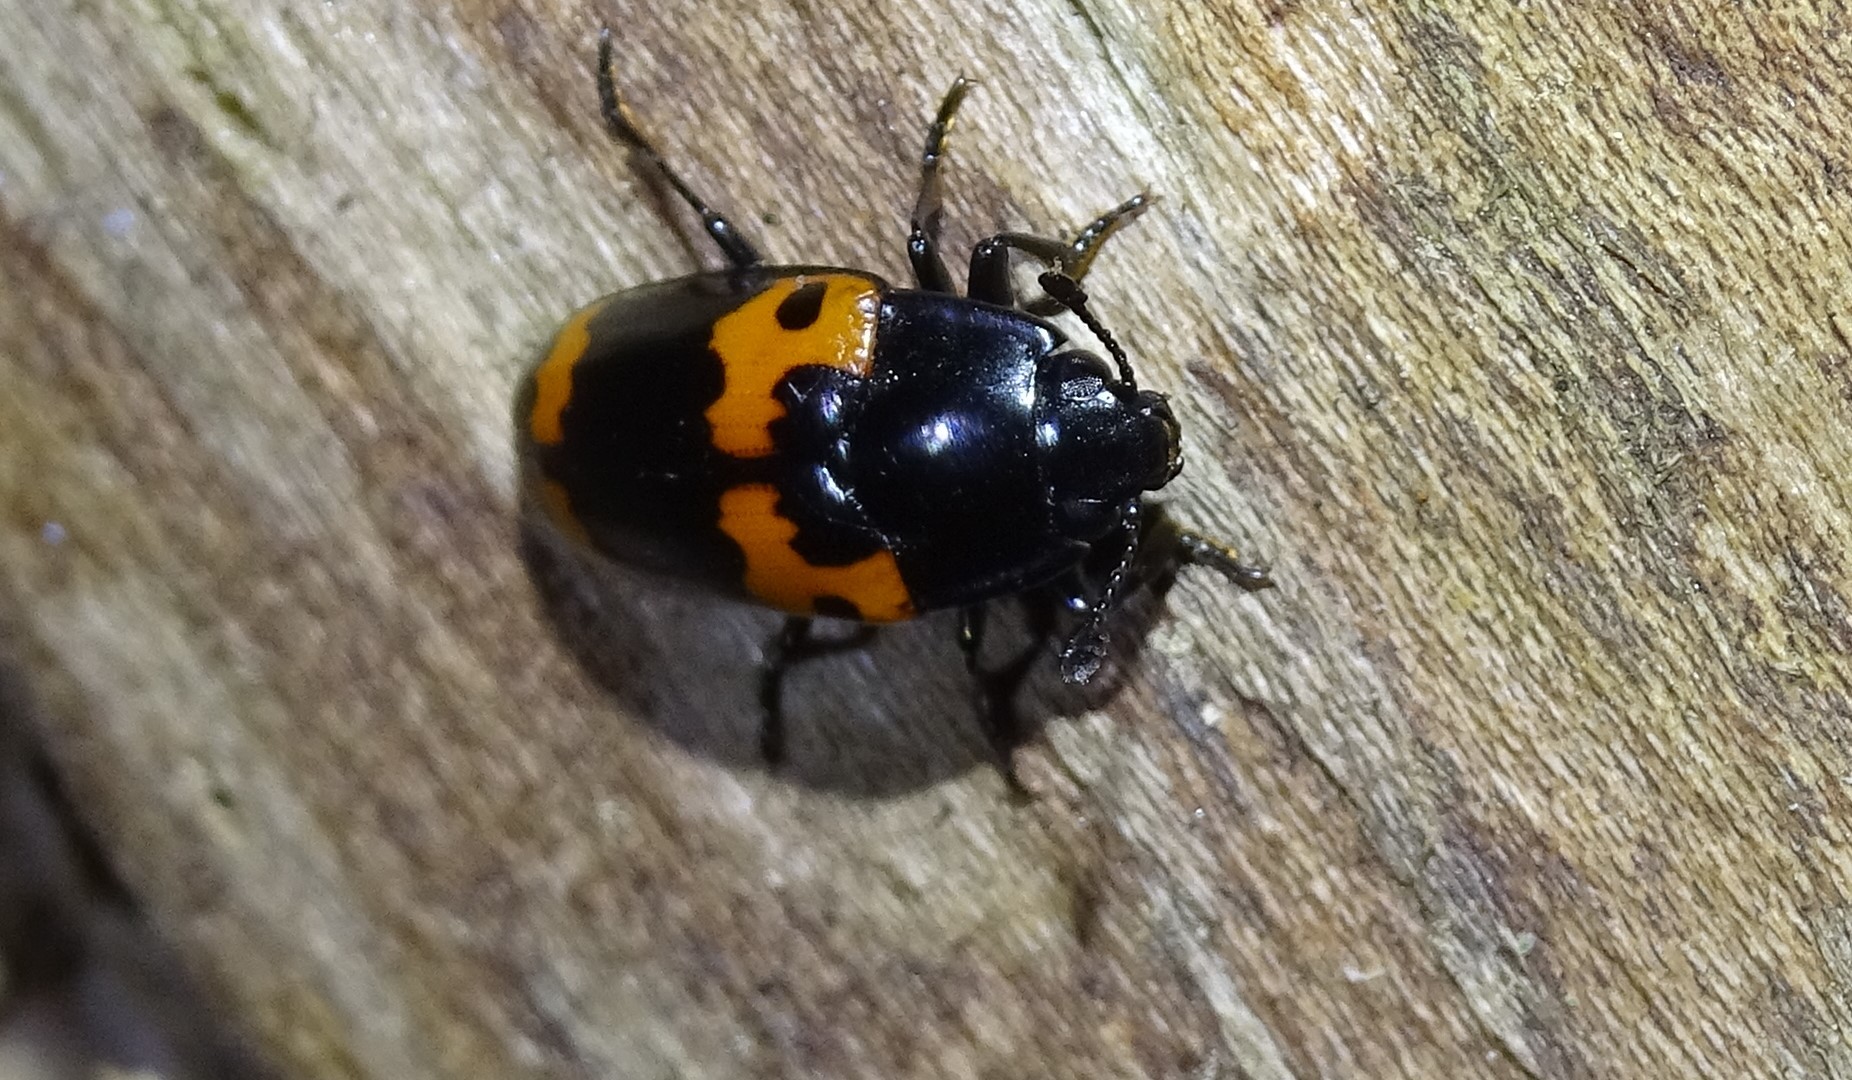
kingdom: Animalia
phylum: Arthropoda
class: Insecta
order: Coleoptera
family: Erotylidae
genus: Megalodacne
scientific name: Megalodacne fasciata
